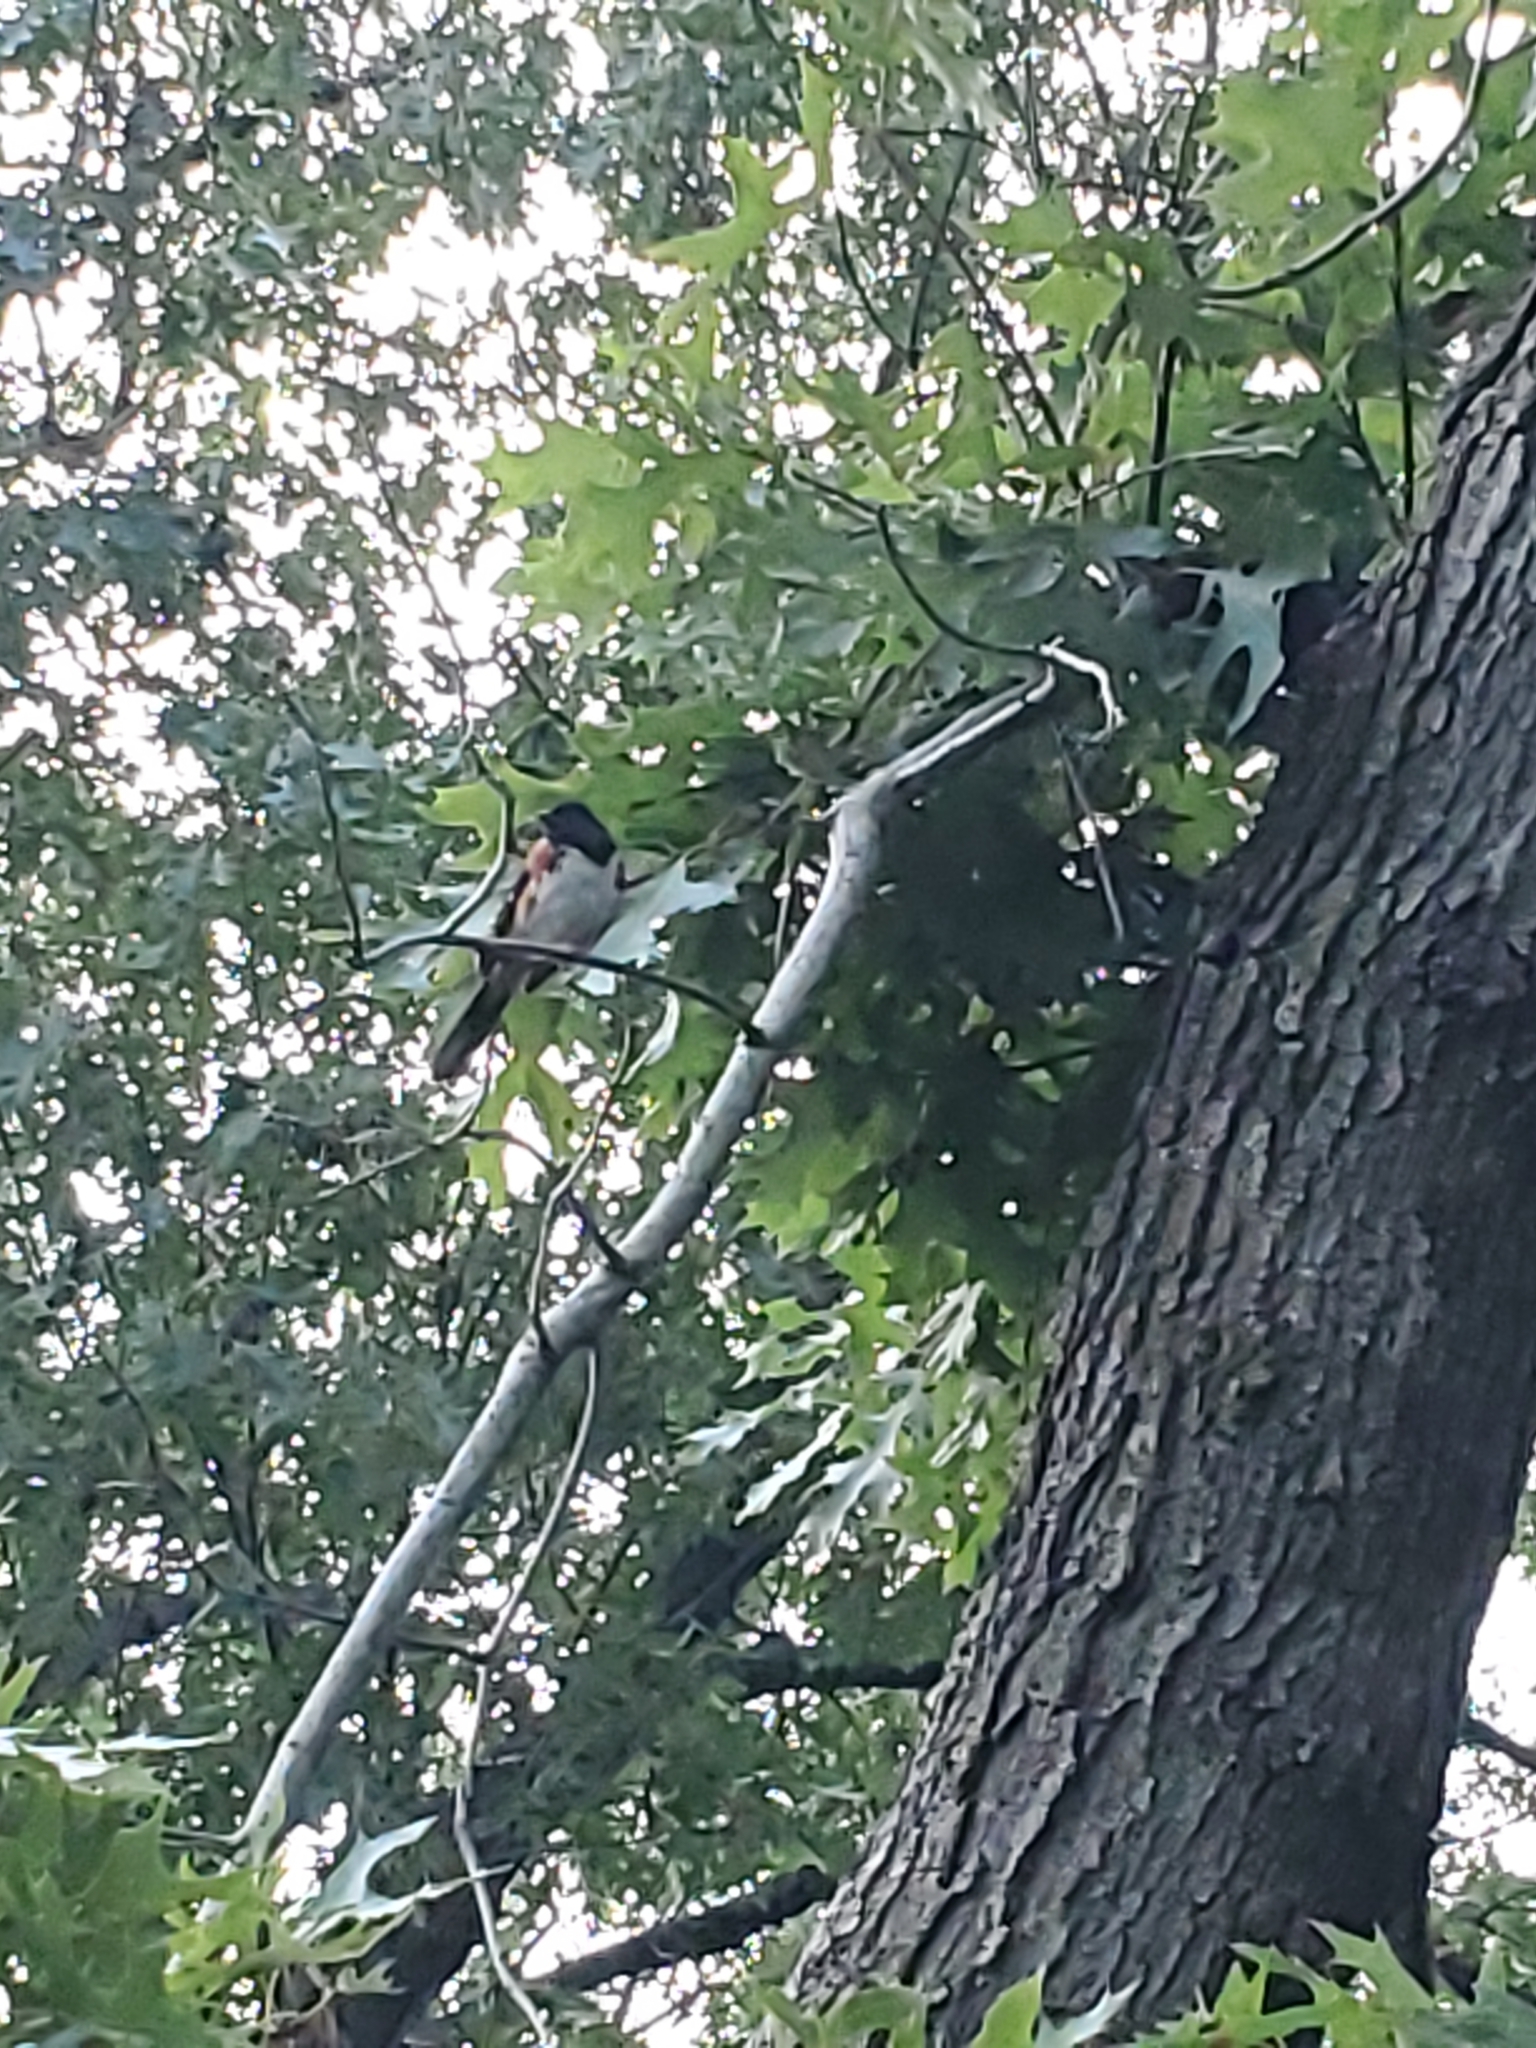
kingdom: Animalia
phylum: Chordata
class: Aves
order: Passeriformes
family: Passerellidae
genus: Pipilo
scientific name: Pipilo erythrophthalmus
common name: Eastern towhee
